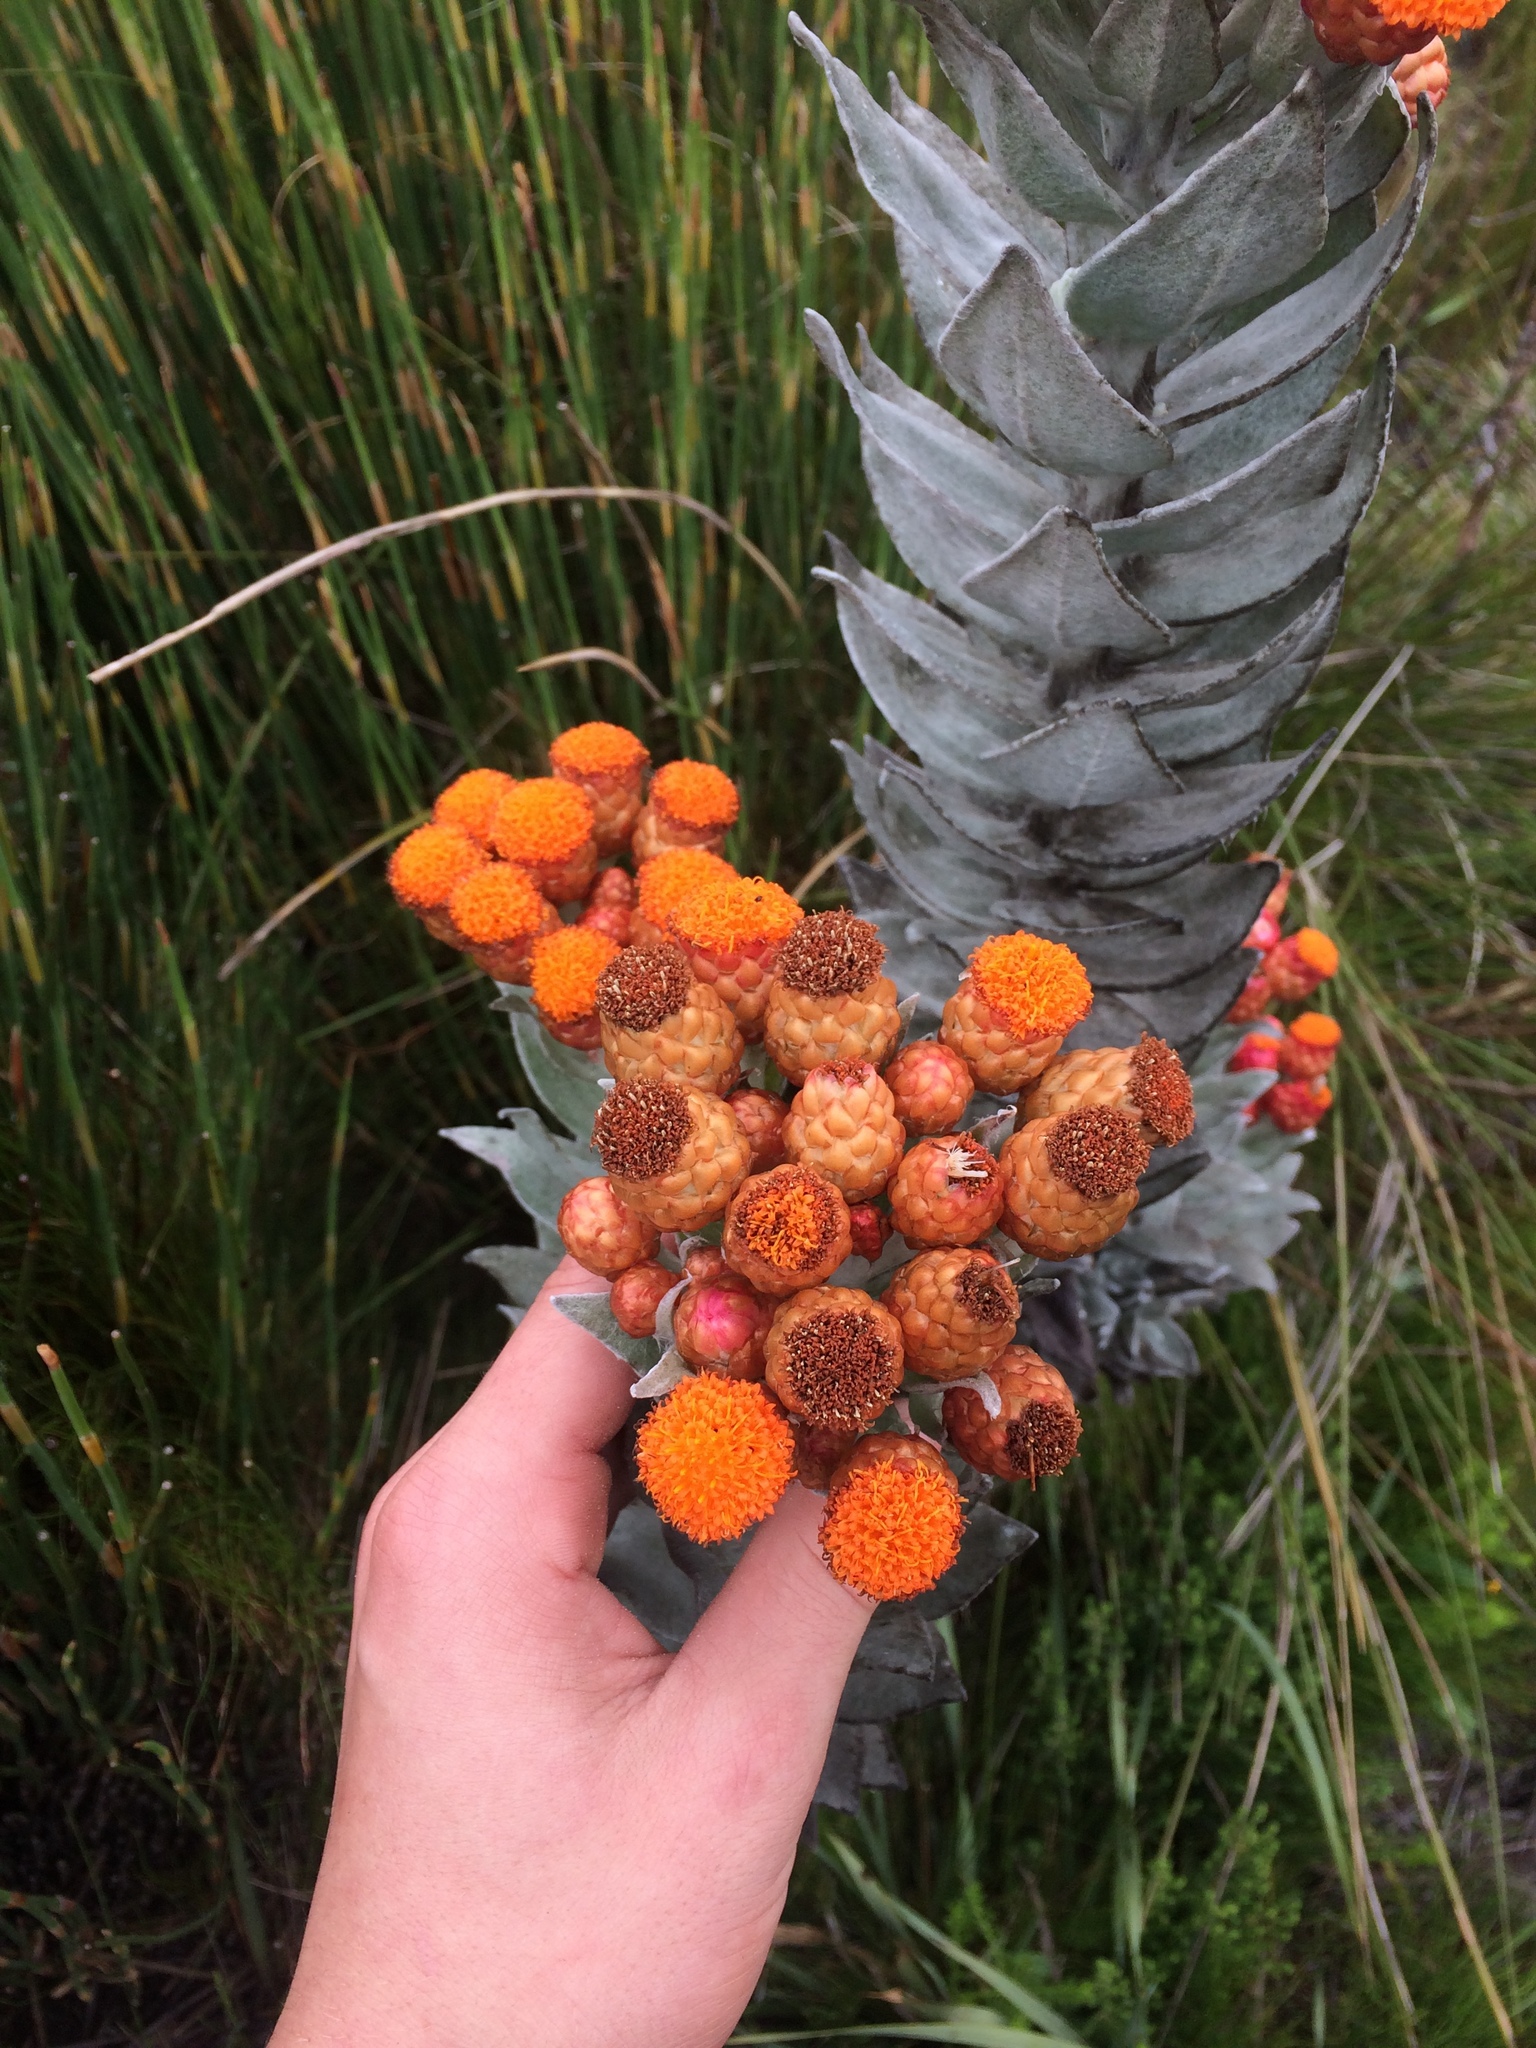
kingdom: Plantae
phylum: Tracheophyta
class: Magnoliopsida
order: Asterales
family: Asteraceae
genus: Syncarpha
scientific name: Syncarpha eximia
